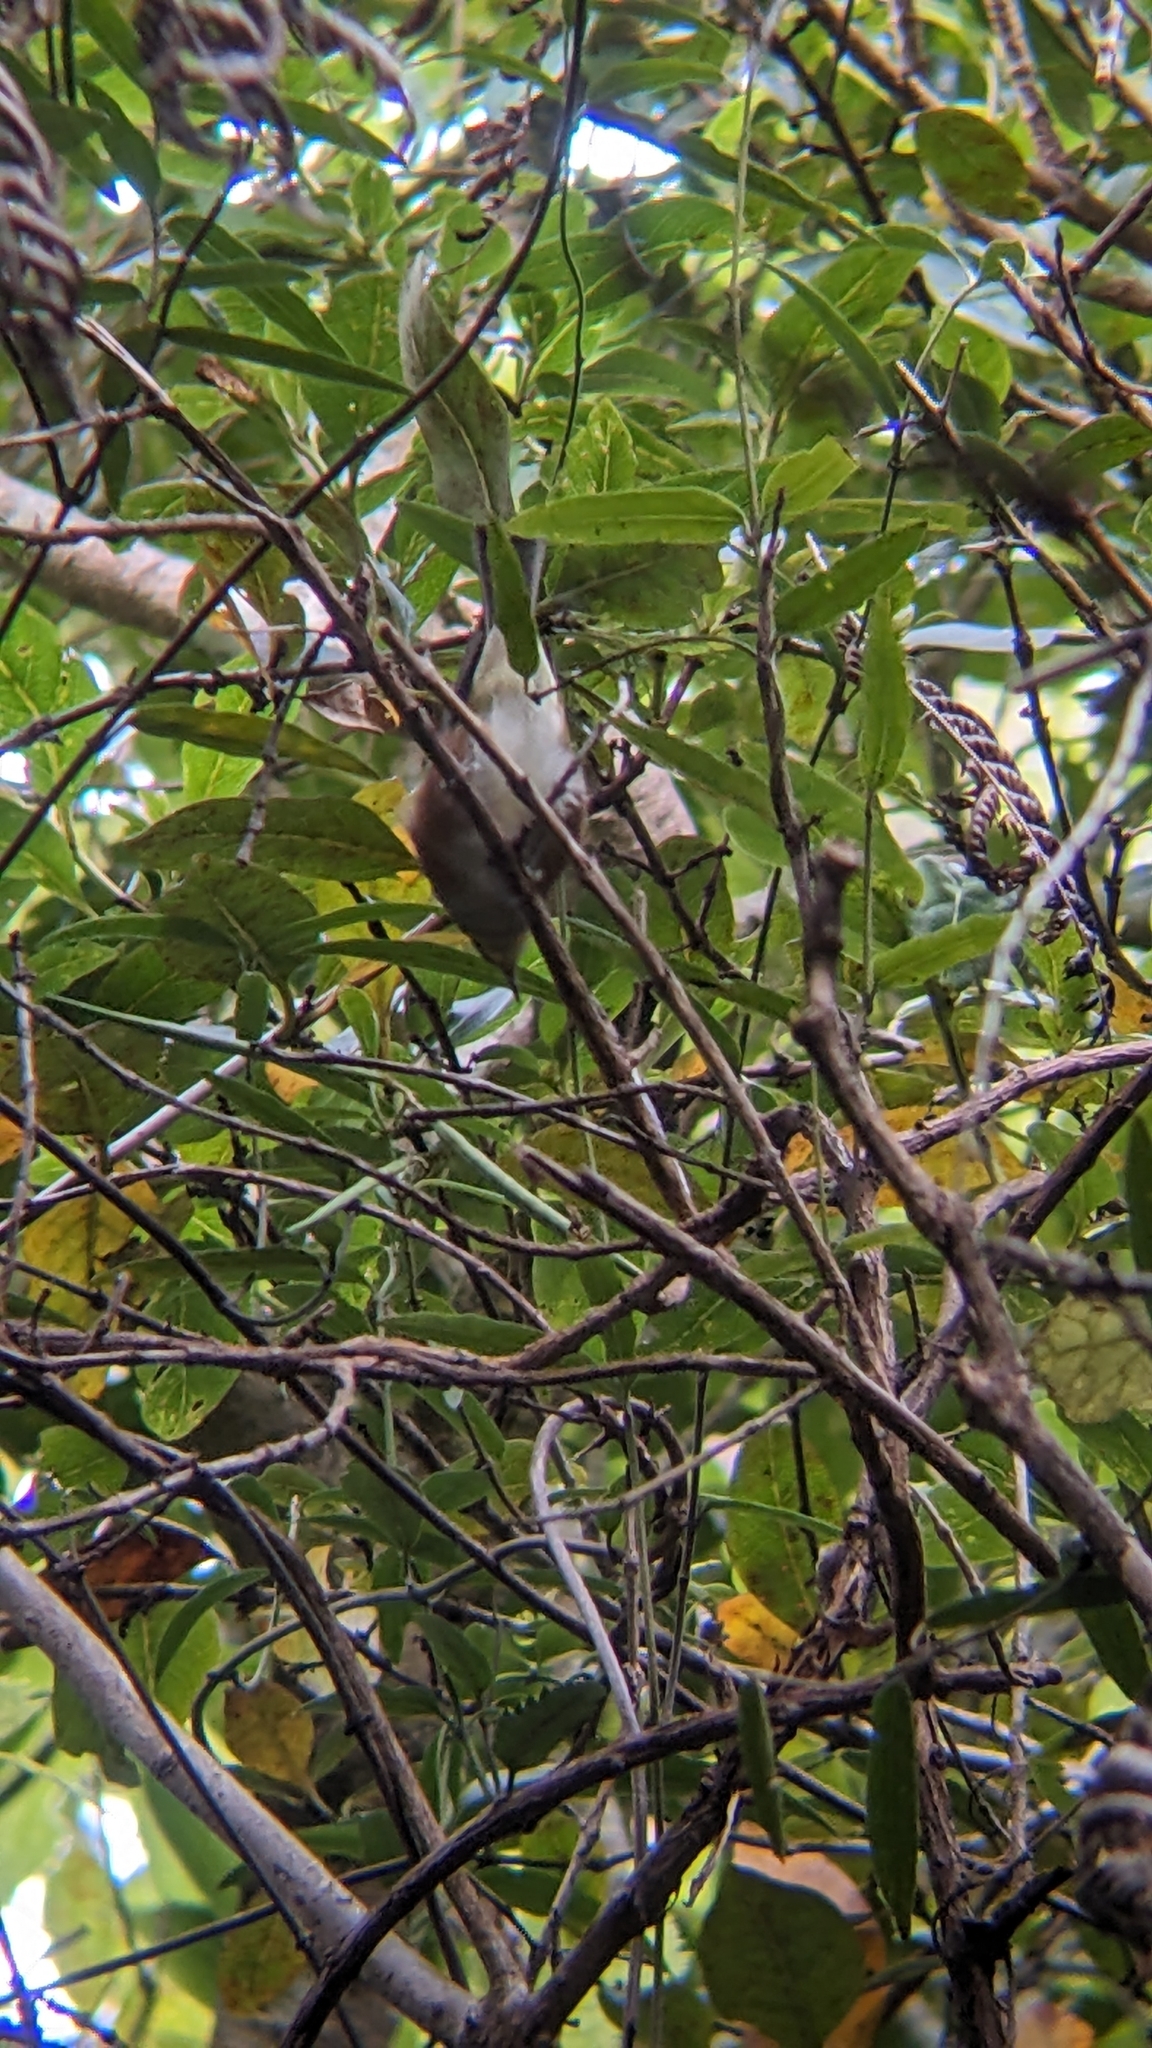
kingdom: Animalia
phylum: Chordata
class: Aves
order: Passeriformes
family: Acanthizidae
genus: Gerygone
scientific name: Gerygone igata
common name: Grey gerygone
